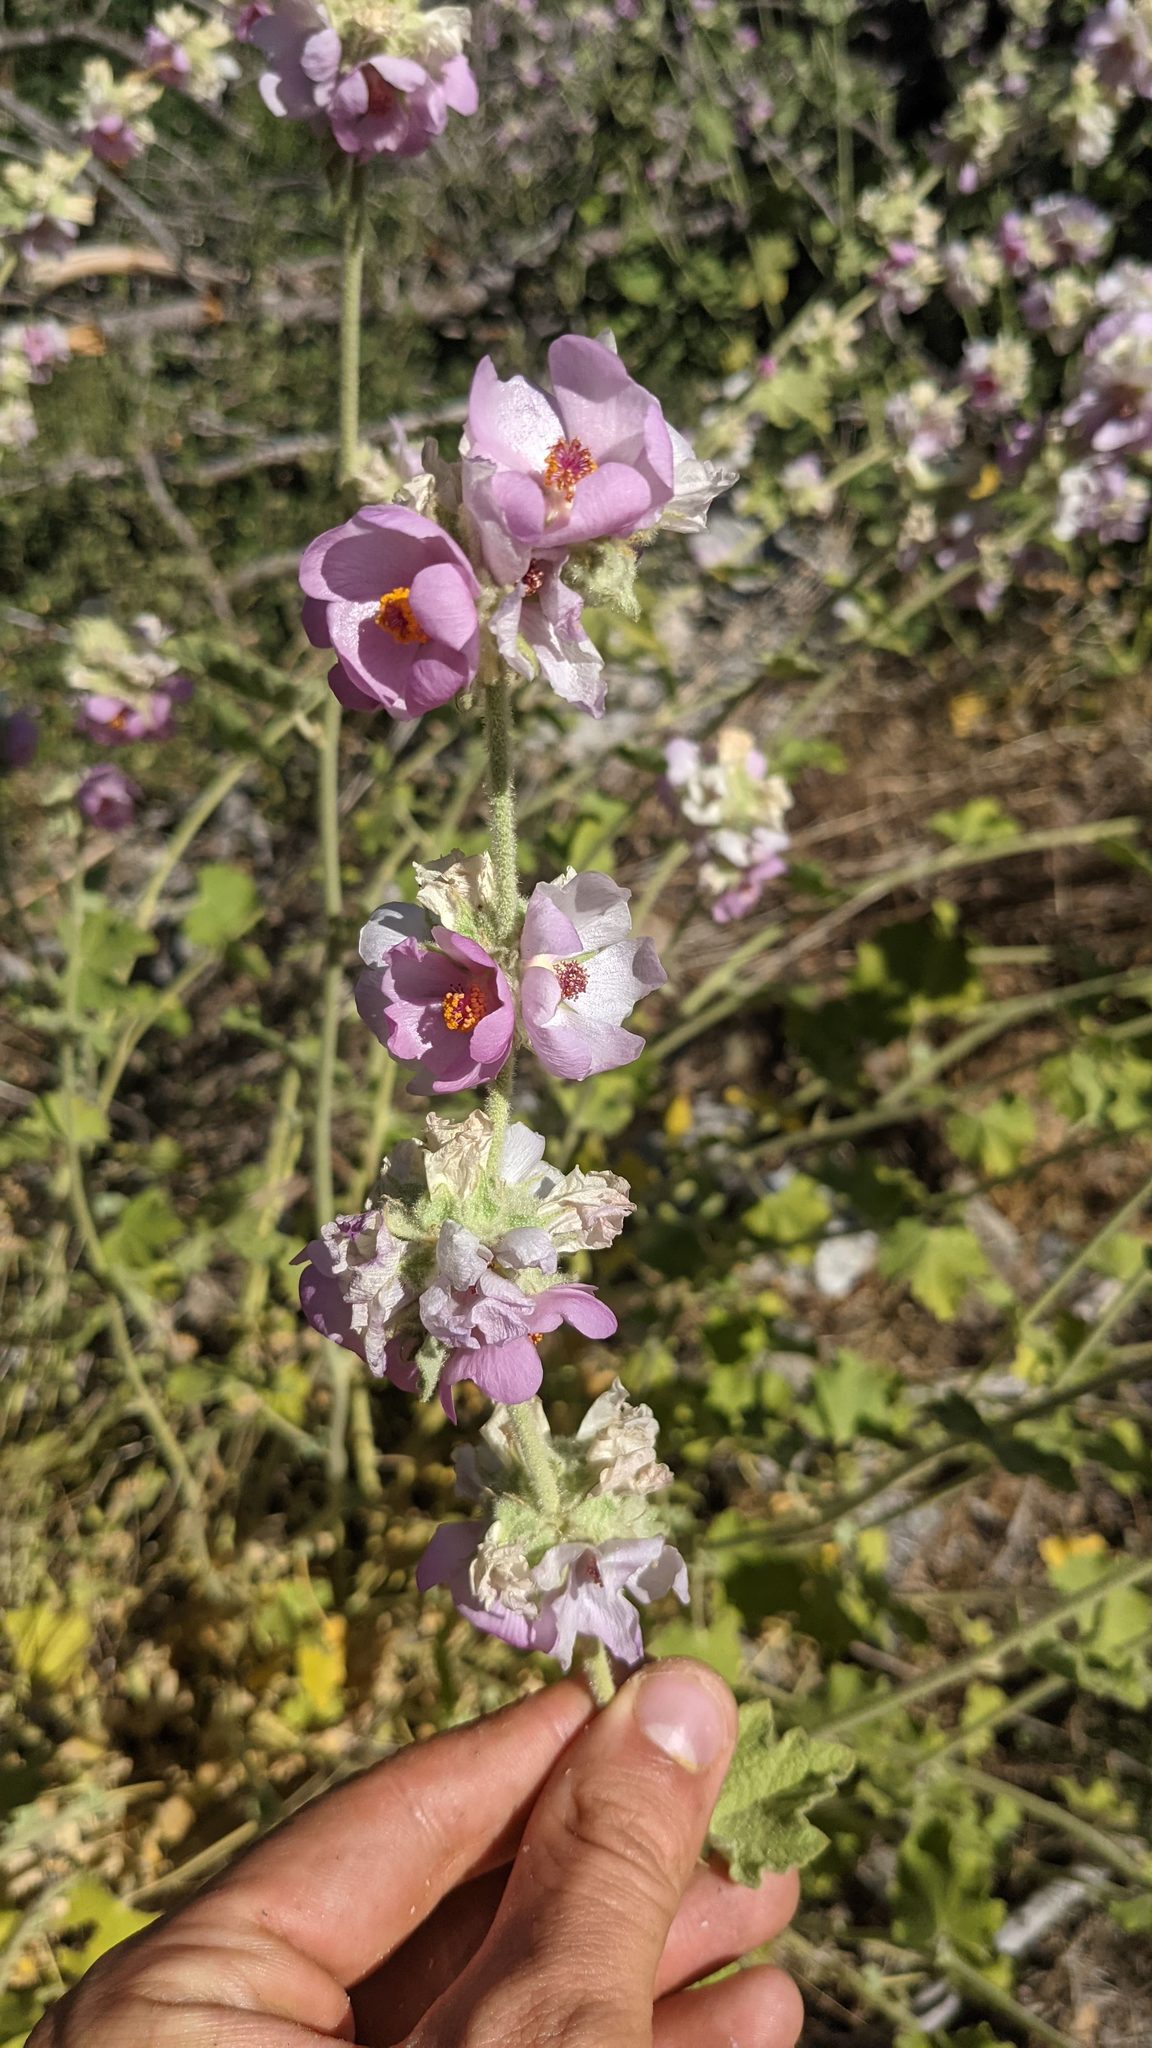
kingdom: Plantae
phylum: Tracheophyta
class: Magnoliopsida
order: Malvales
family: Malvaceae
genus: Malacothamnus
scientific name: Malacothamnus
